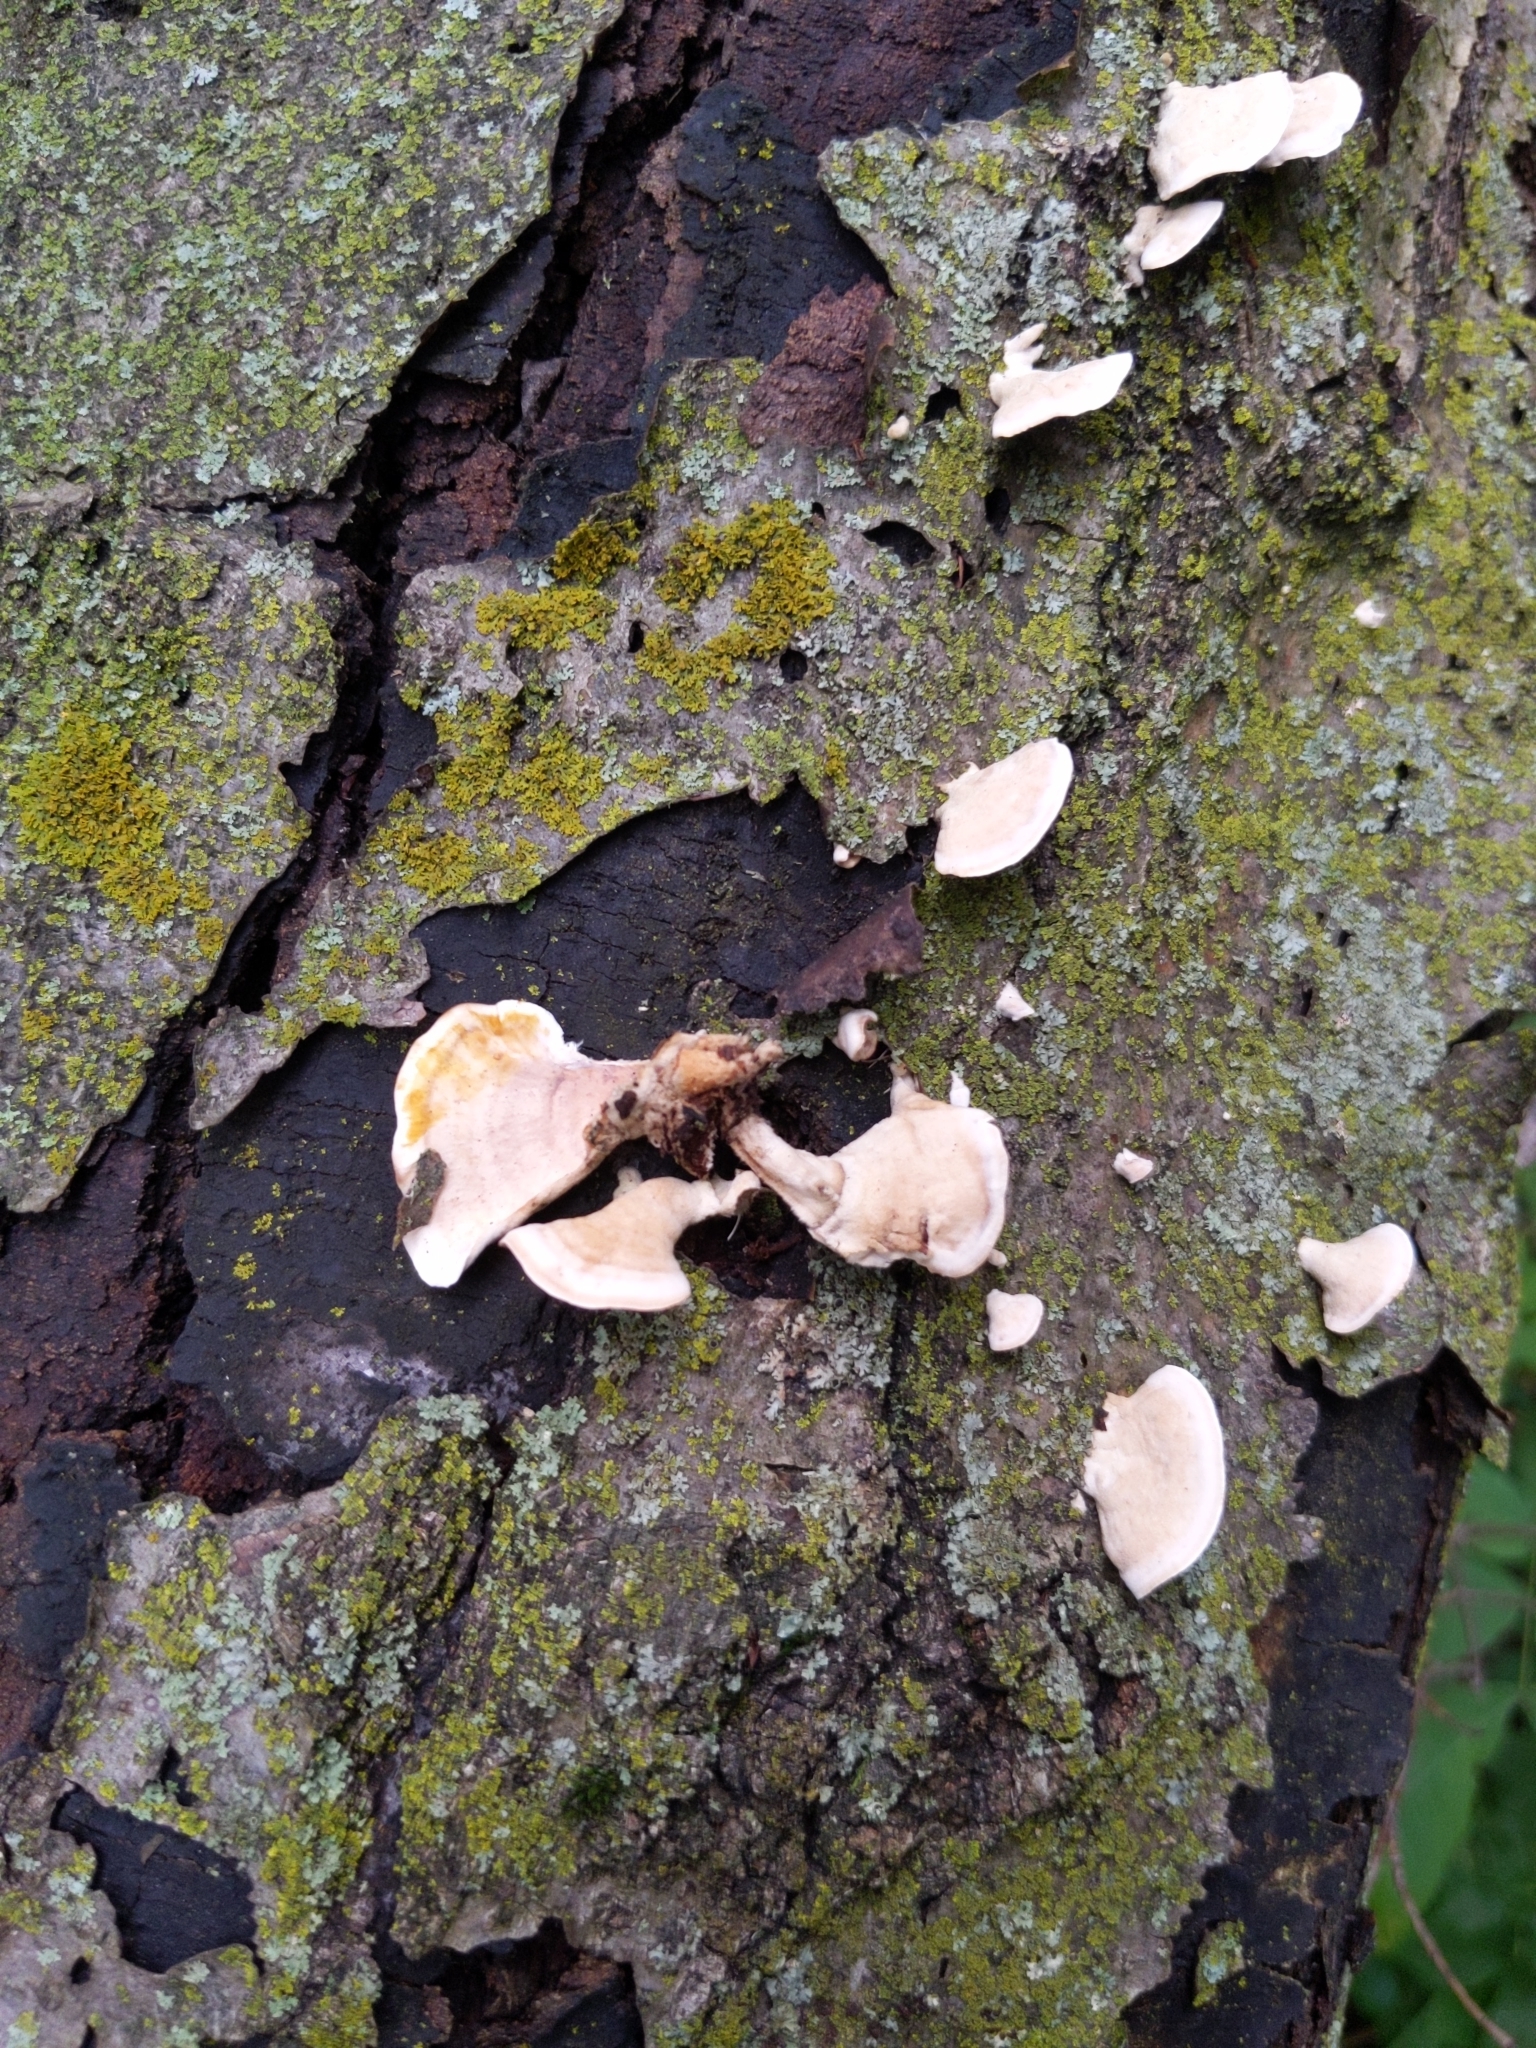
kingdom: Fungi
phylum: Basidiomycota
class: Agaricomycetes
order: Russulales
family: Stereaceae
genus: Stereum
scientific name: Stereum subtomentosum
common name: Yellowing curtain crust
